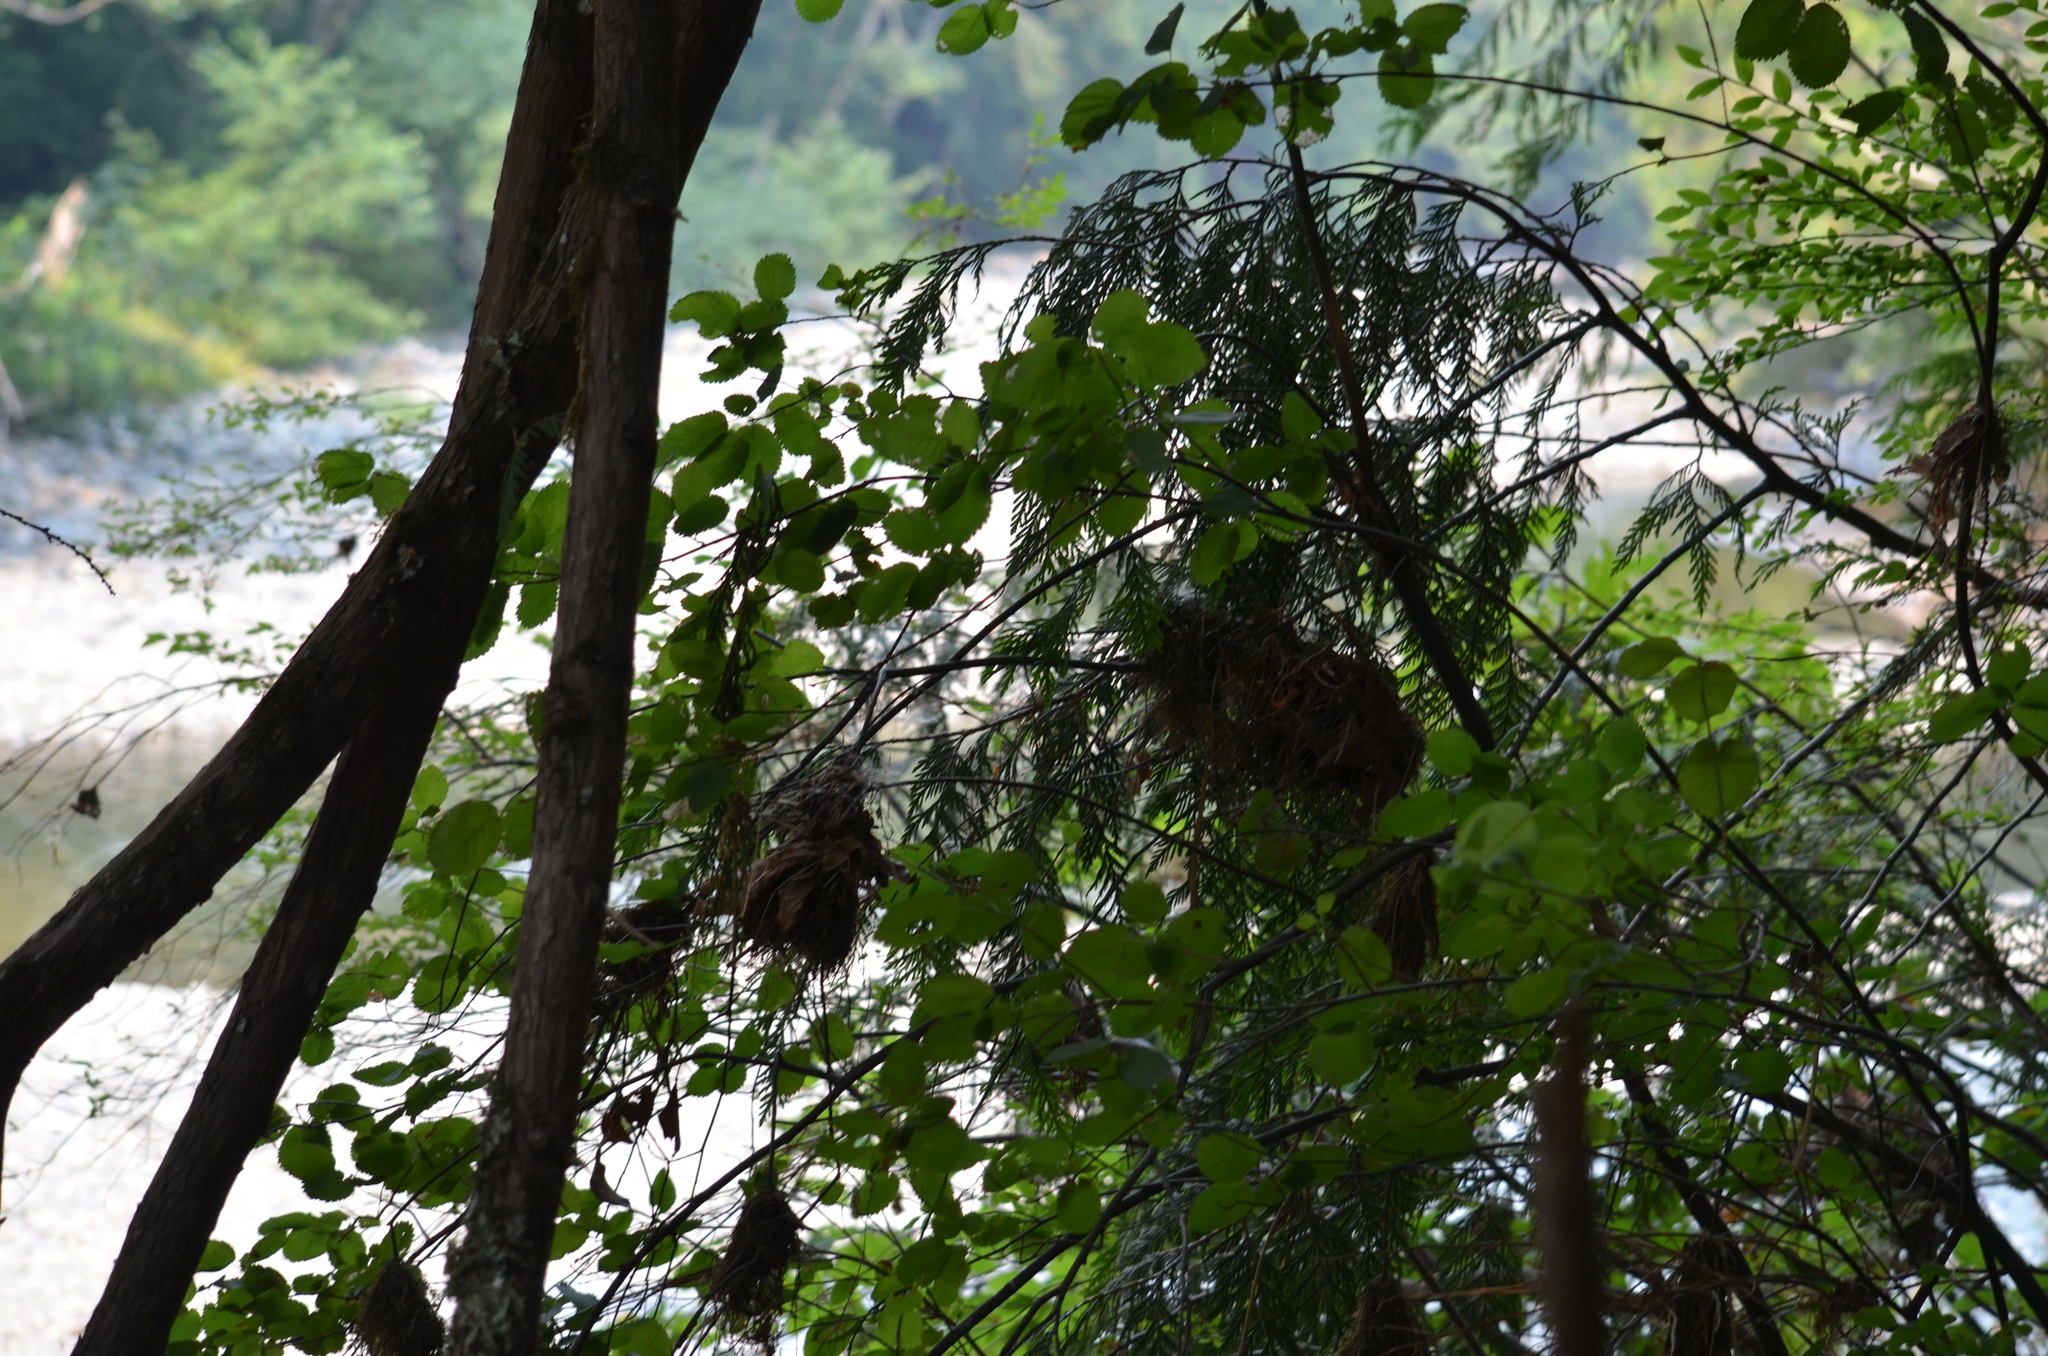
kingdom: Animalia
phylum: Chordata
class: Aves
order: Passeriformes
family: Aegithalidae
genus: Psaltriparus
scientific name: Psaltriparus minimus
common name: American bushtit
